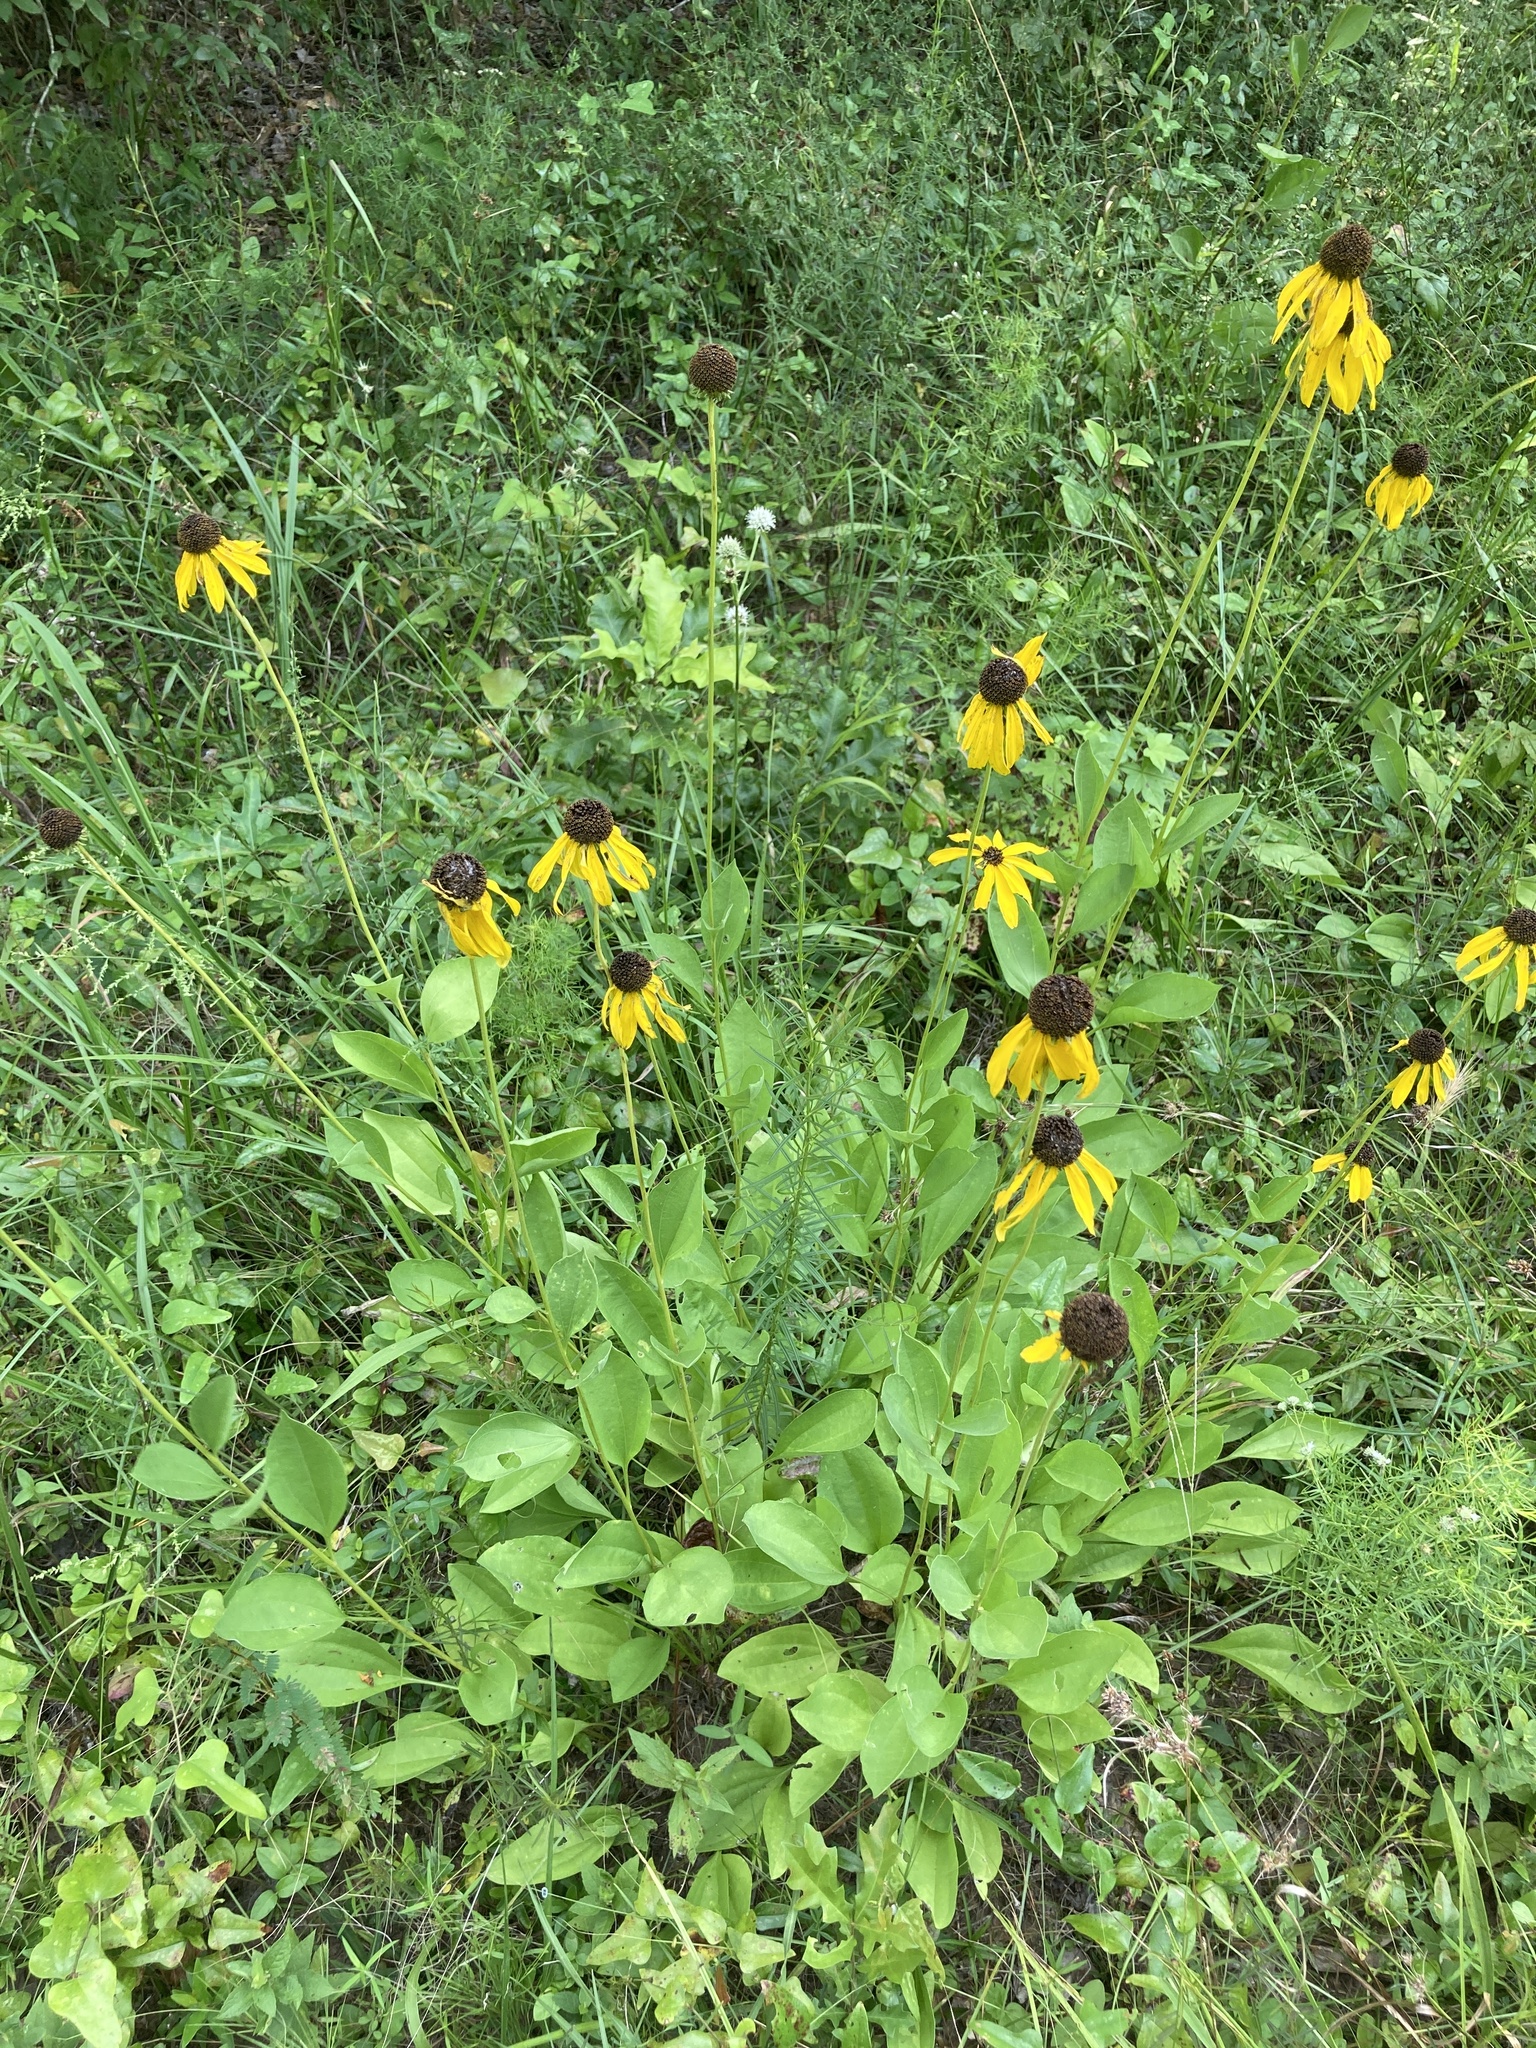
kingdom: Plantae
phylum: Tracheophyta
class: Magnoliopsida
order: Asterales
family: Asteraceae
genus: Rudbeckia
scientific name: Rudbeckia grandiflora
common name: Large-flowered coneflower
